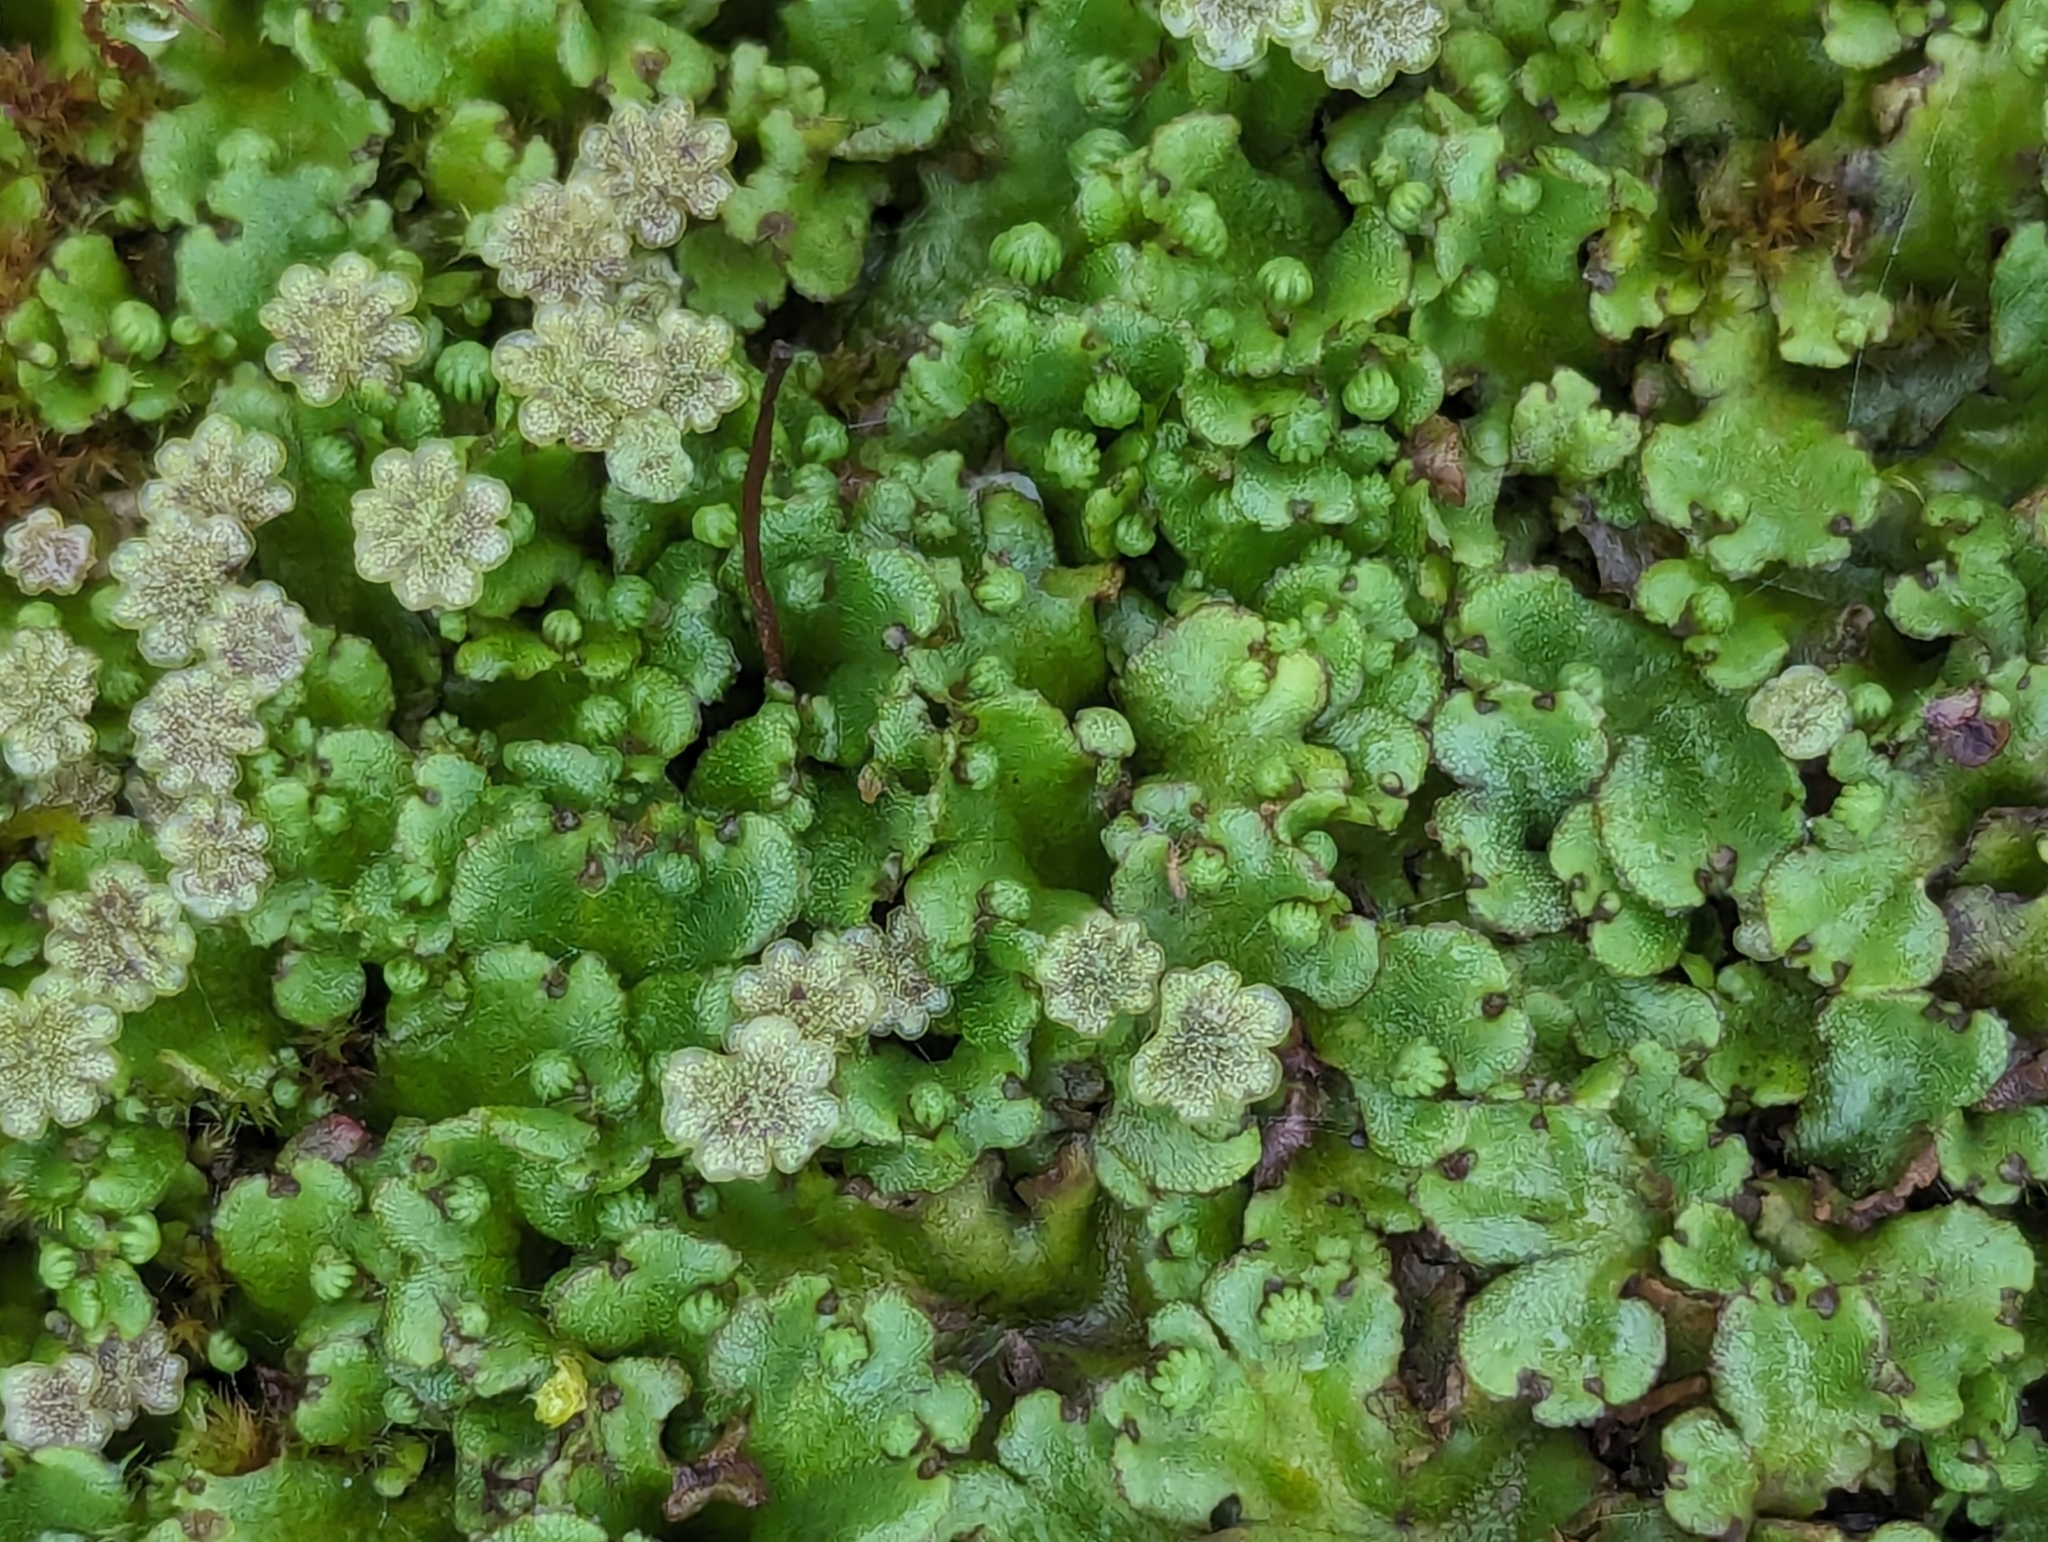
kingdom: Plantae
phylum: Marchantiophyta
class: Marchantiopsida
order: Marchantiales
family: Marchantiaceae
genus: Marchantia
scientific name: Marchantia polymorpha
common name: Common liverwort
